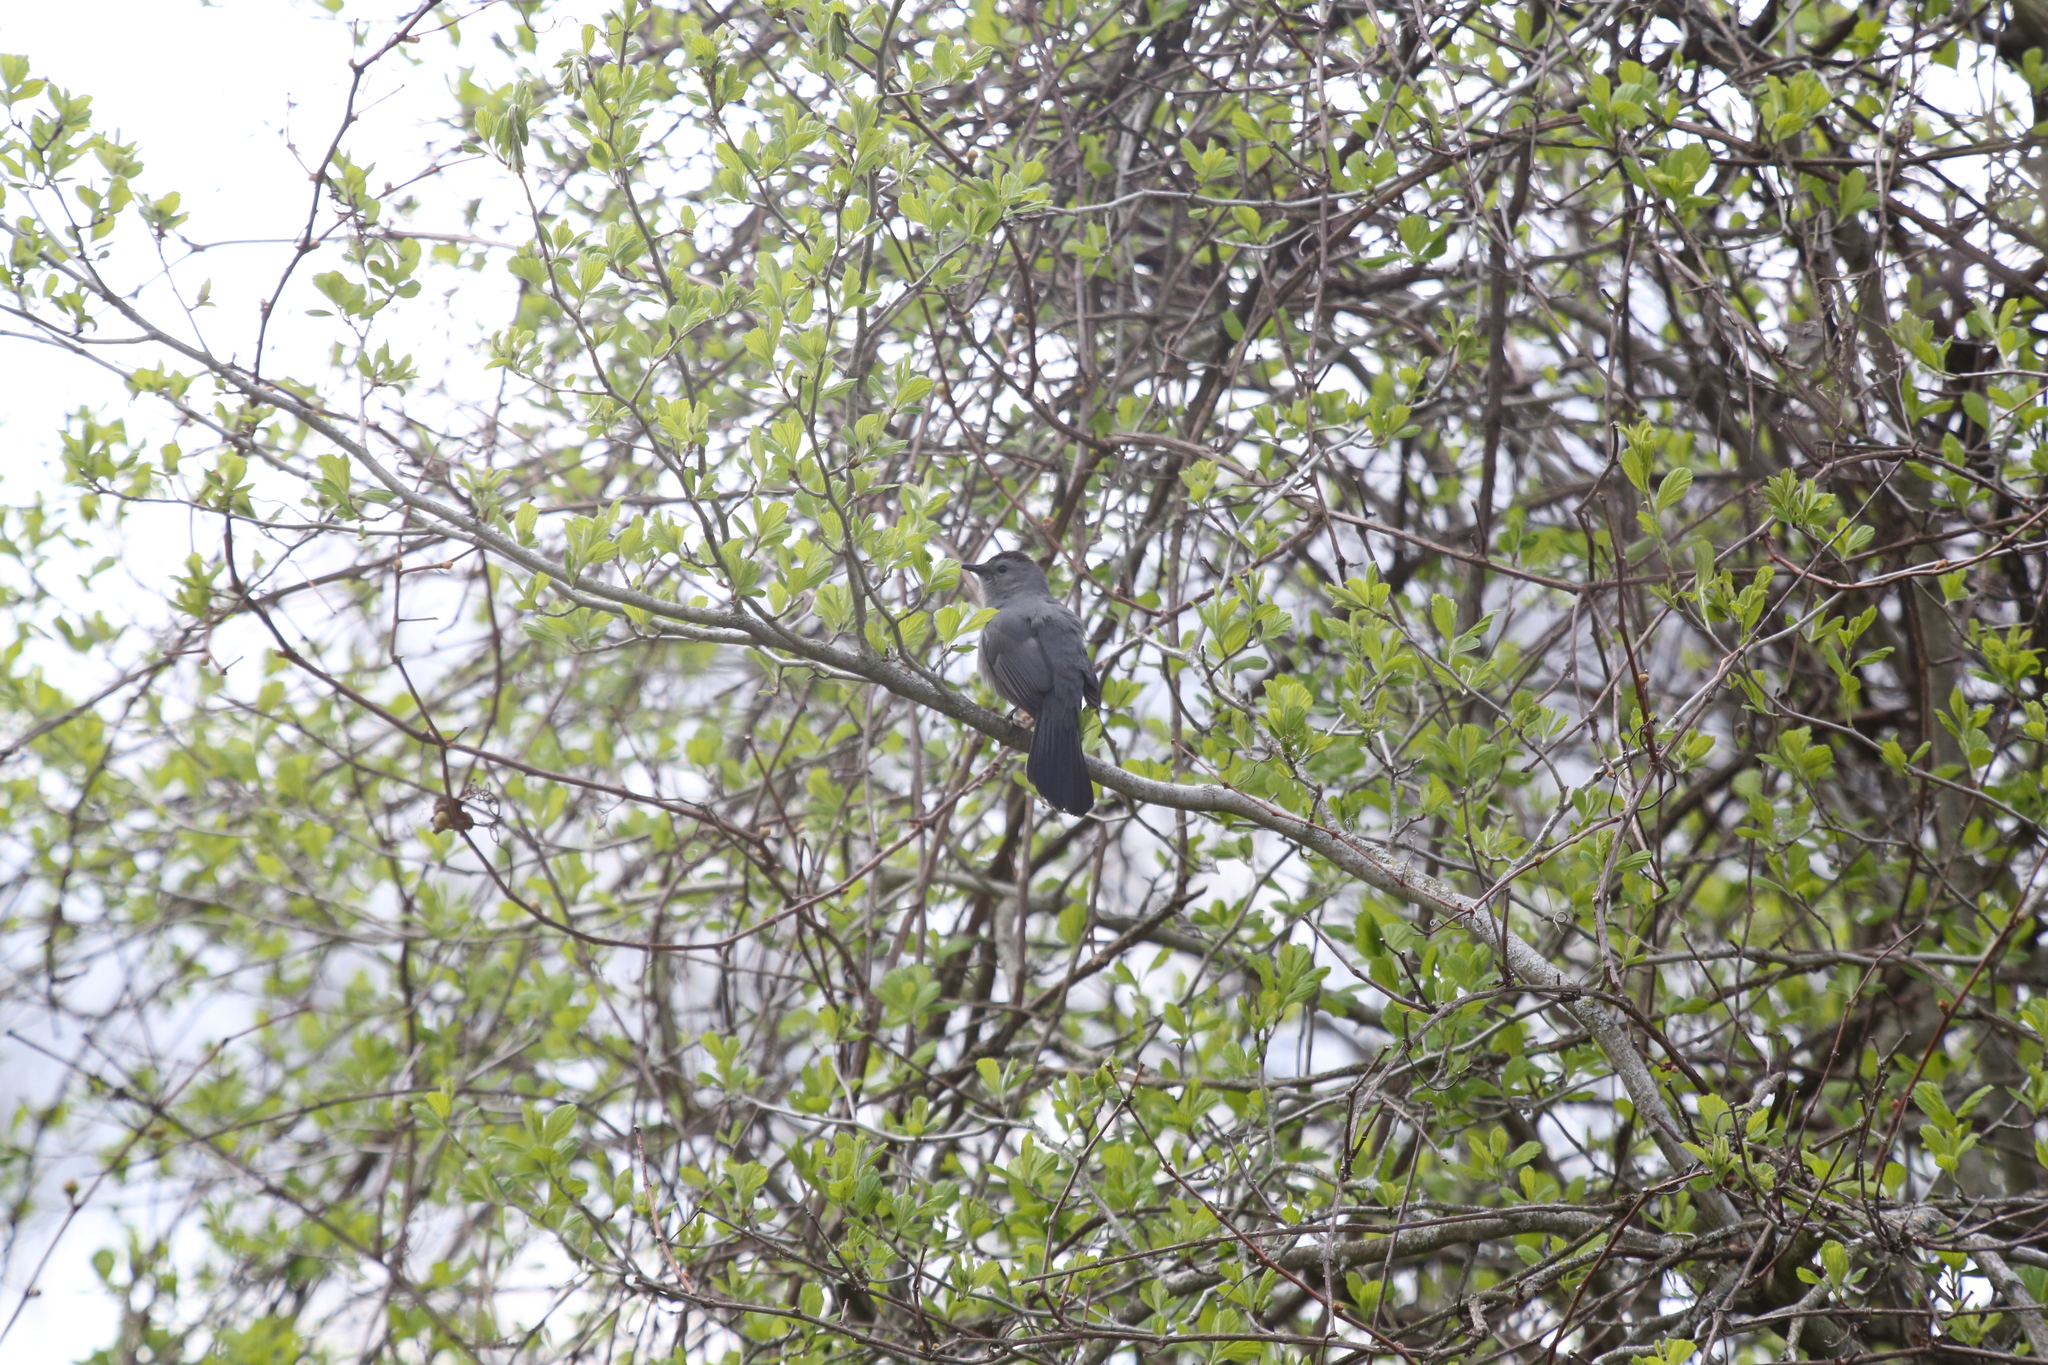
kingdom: Animalia
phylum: Chordata
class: Aves
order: Passeriformes
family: Mimidae
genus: Dumetella
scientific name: Dumetella carolinensis
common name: Gray catbird
